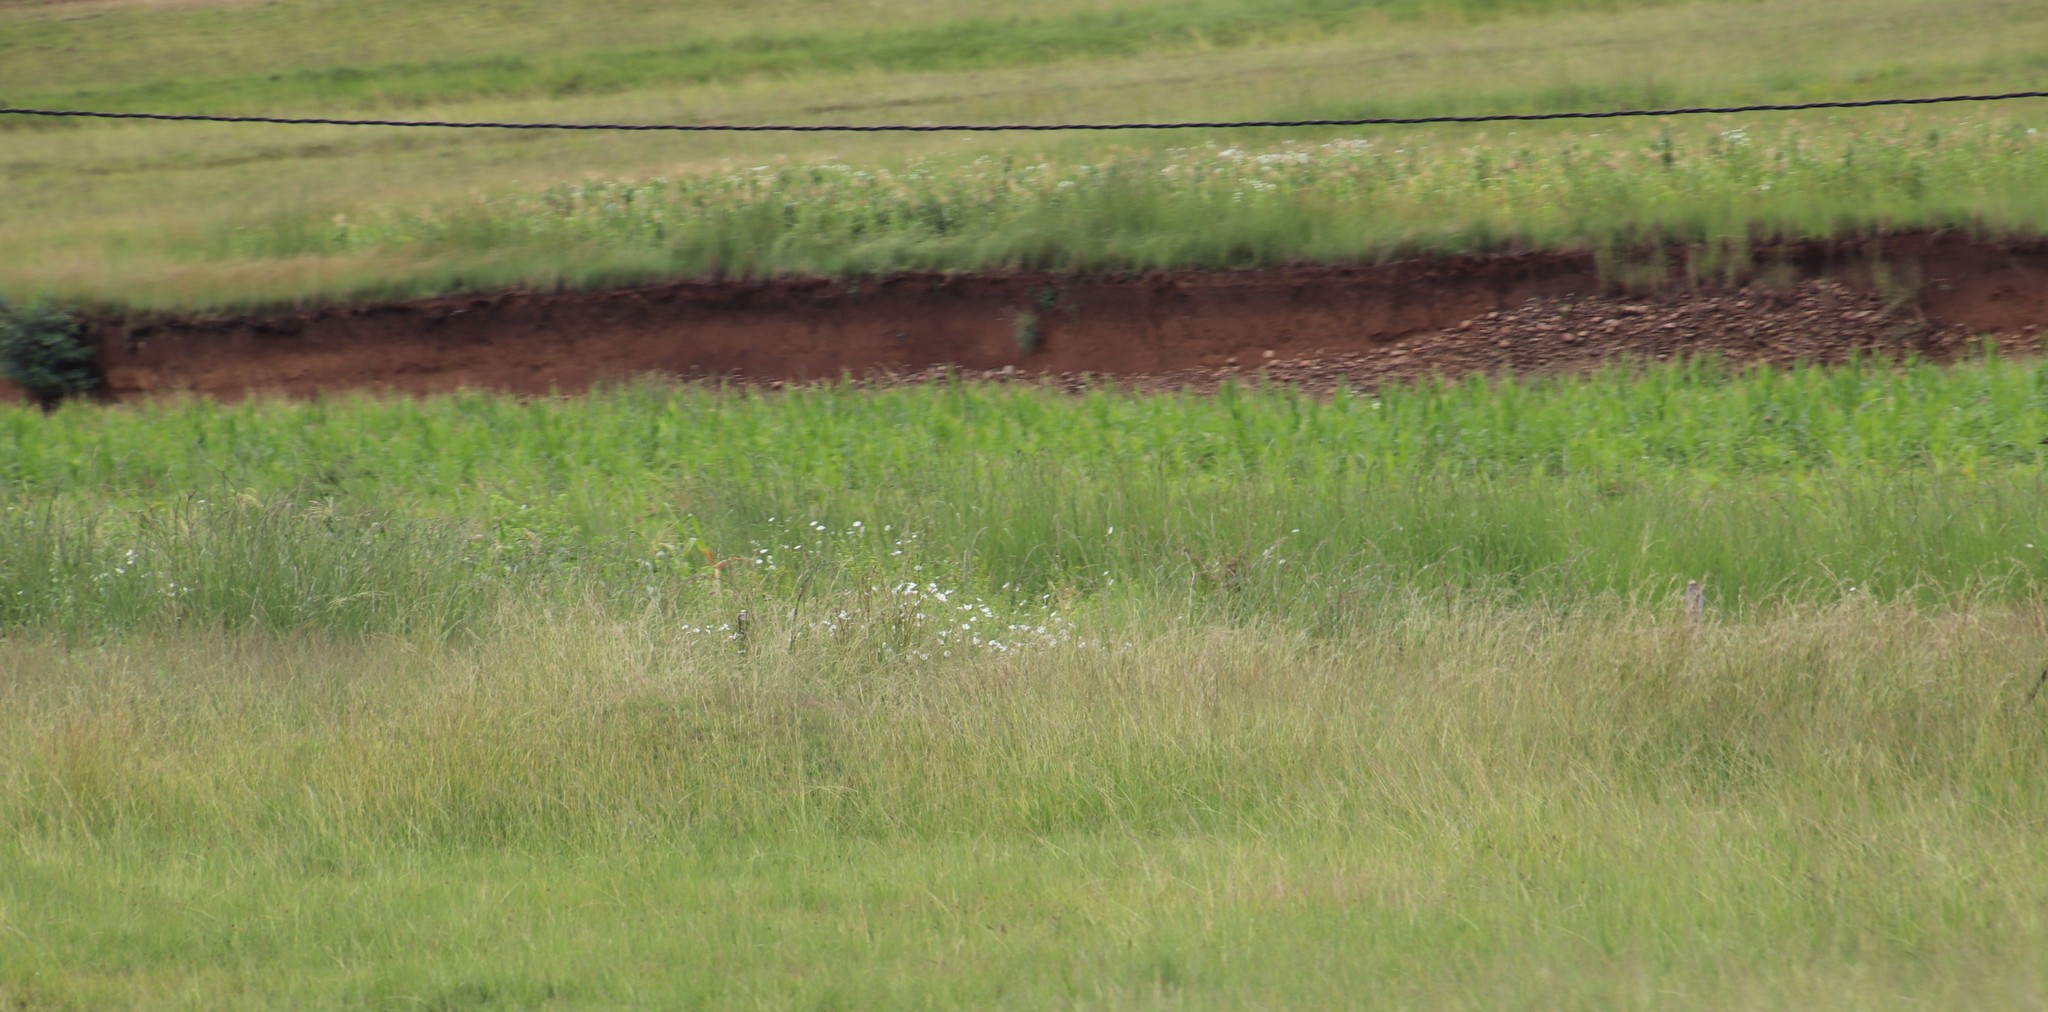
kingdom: Plantae
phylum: Tracheophyta
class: Magnoliopsida
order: Asterales
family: Asteraceae
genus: Cosmos
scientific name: Cosmos bipinnatus
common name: Garden cosmos
